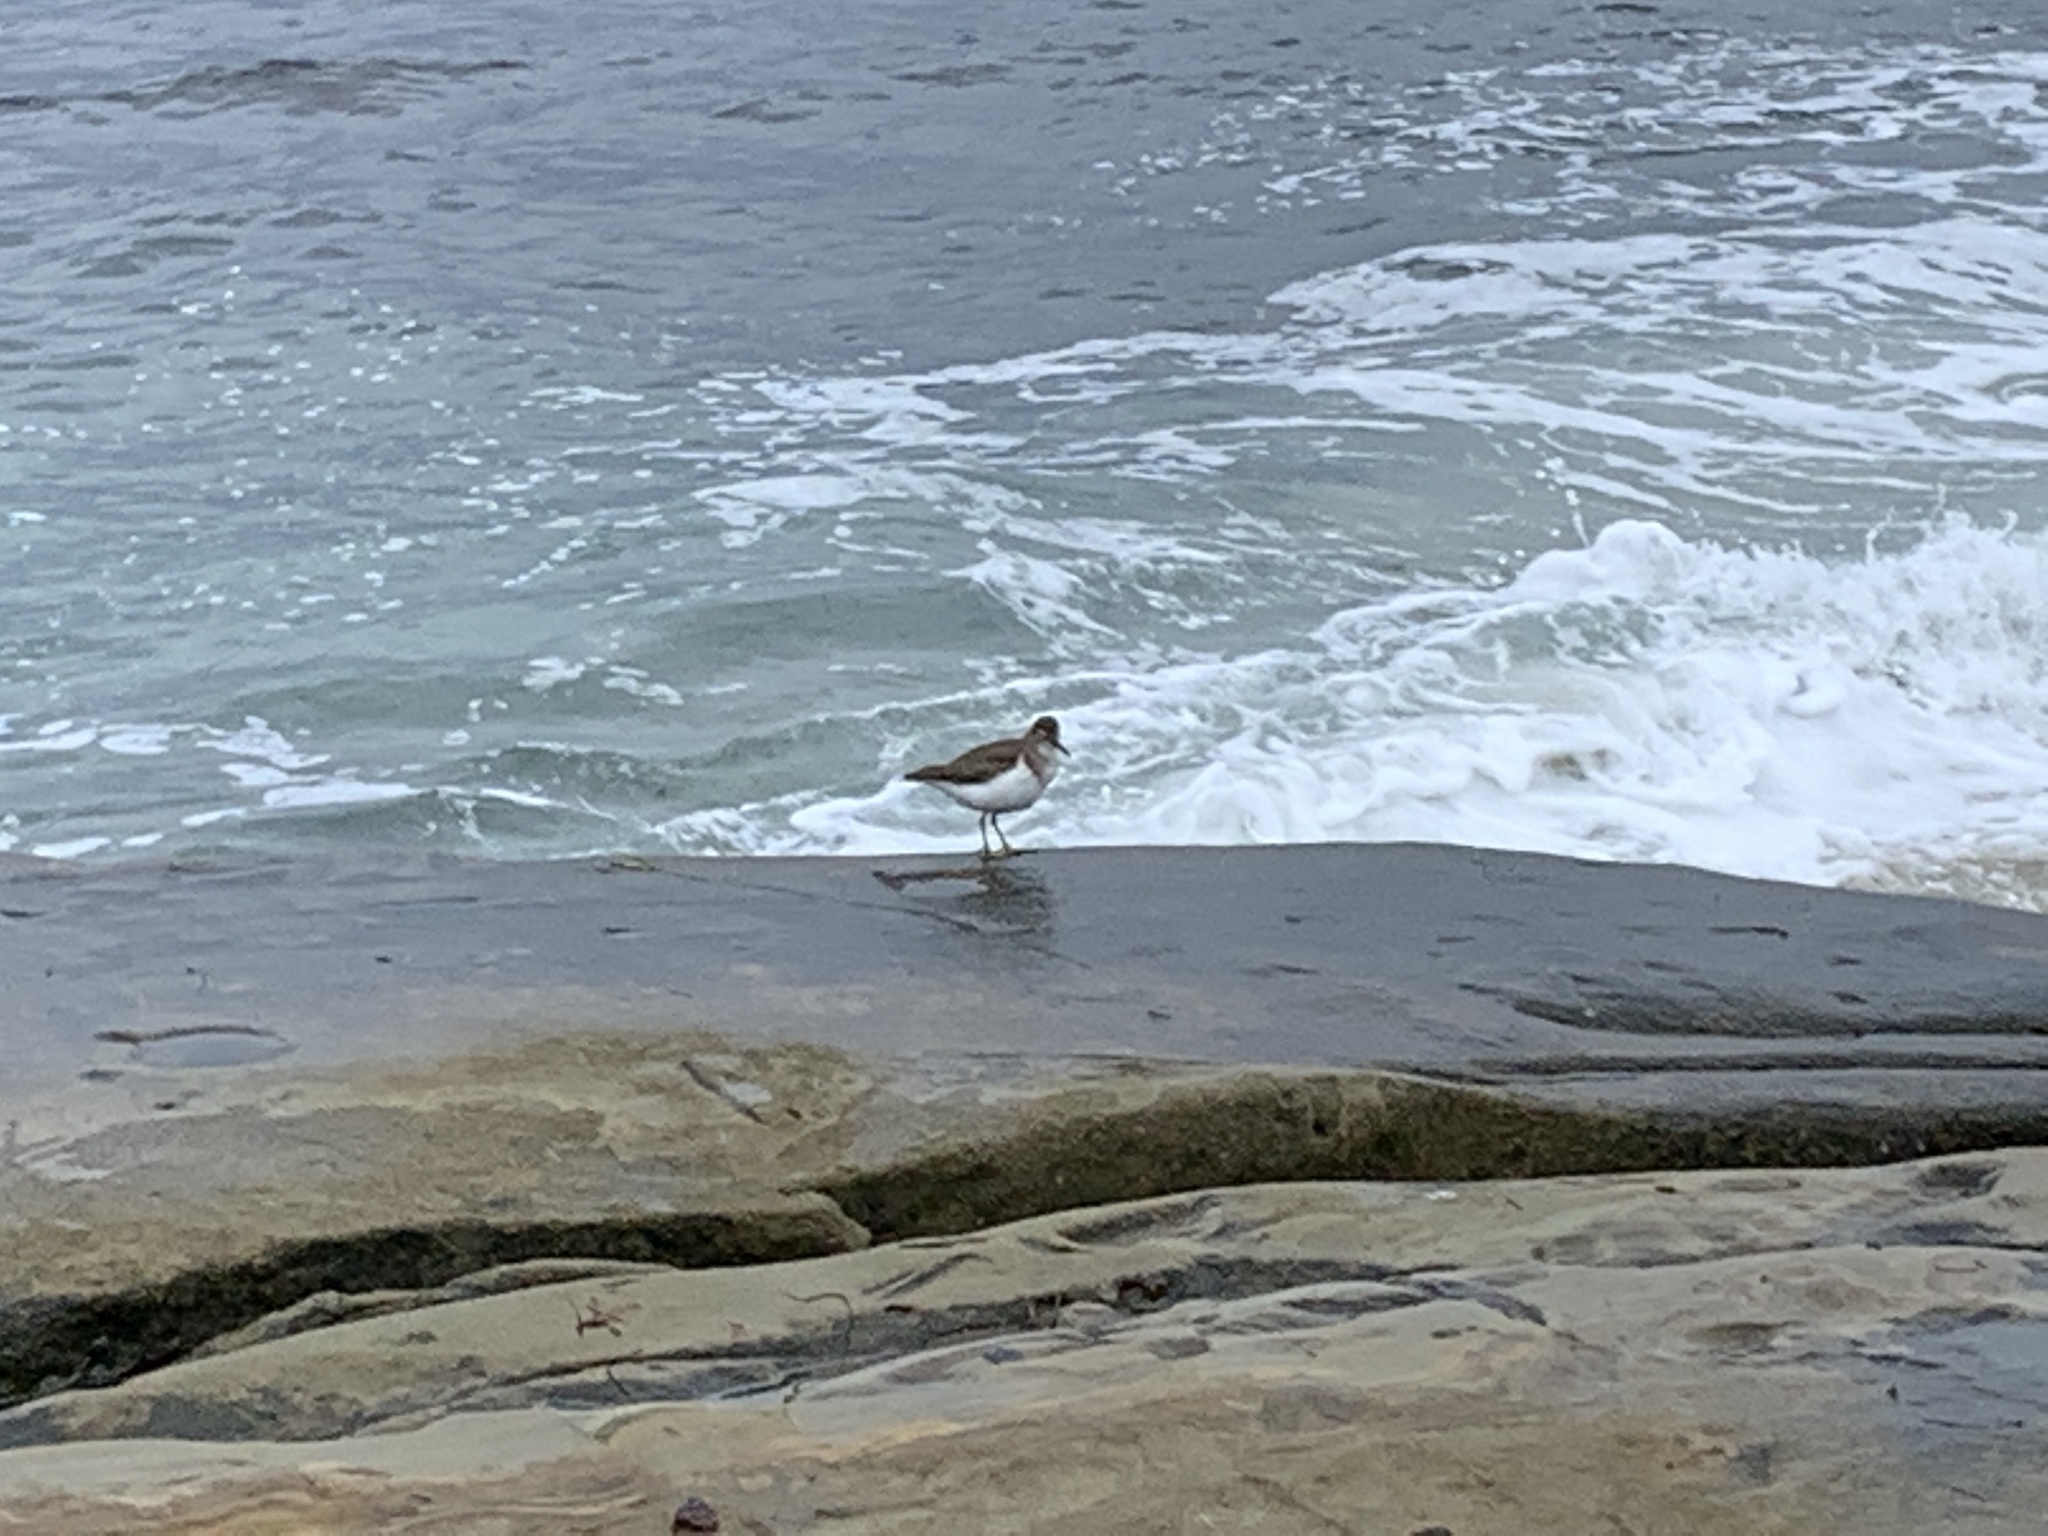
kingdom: Animalia
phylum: Chordata
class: Aves
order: Charadriiformes
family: Scolopacidae
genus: Actitis
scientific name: Actitis macularius
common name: Spotted sandpiper
